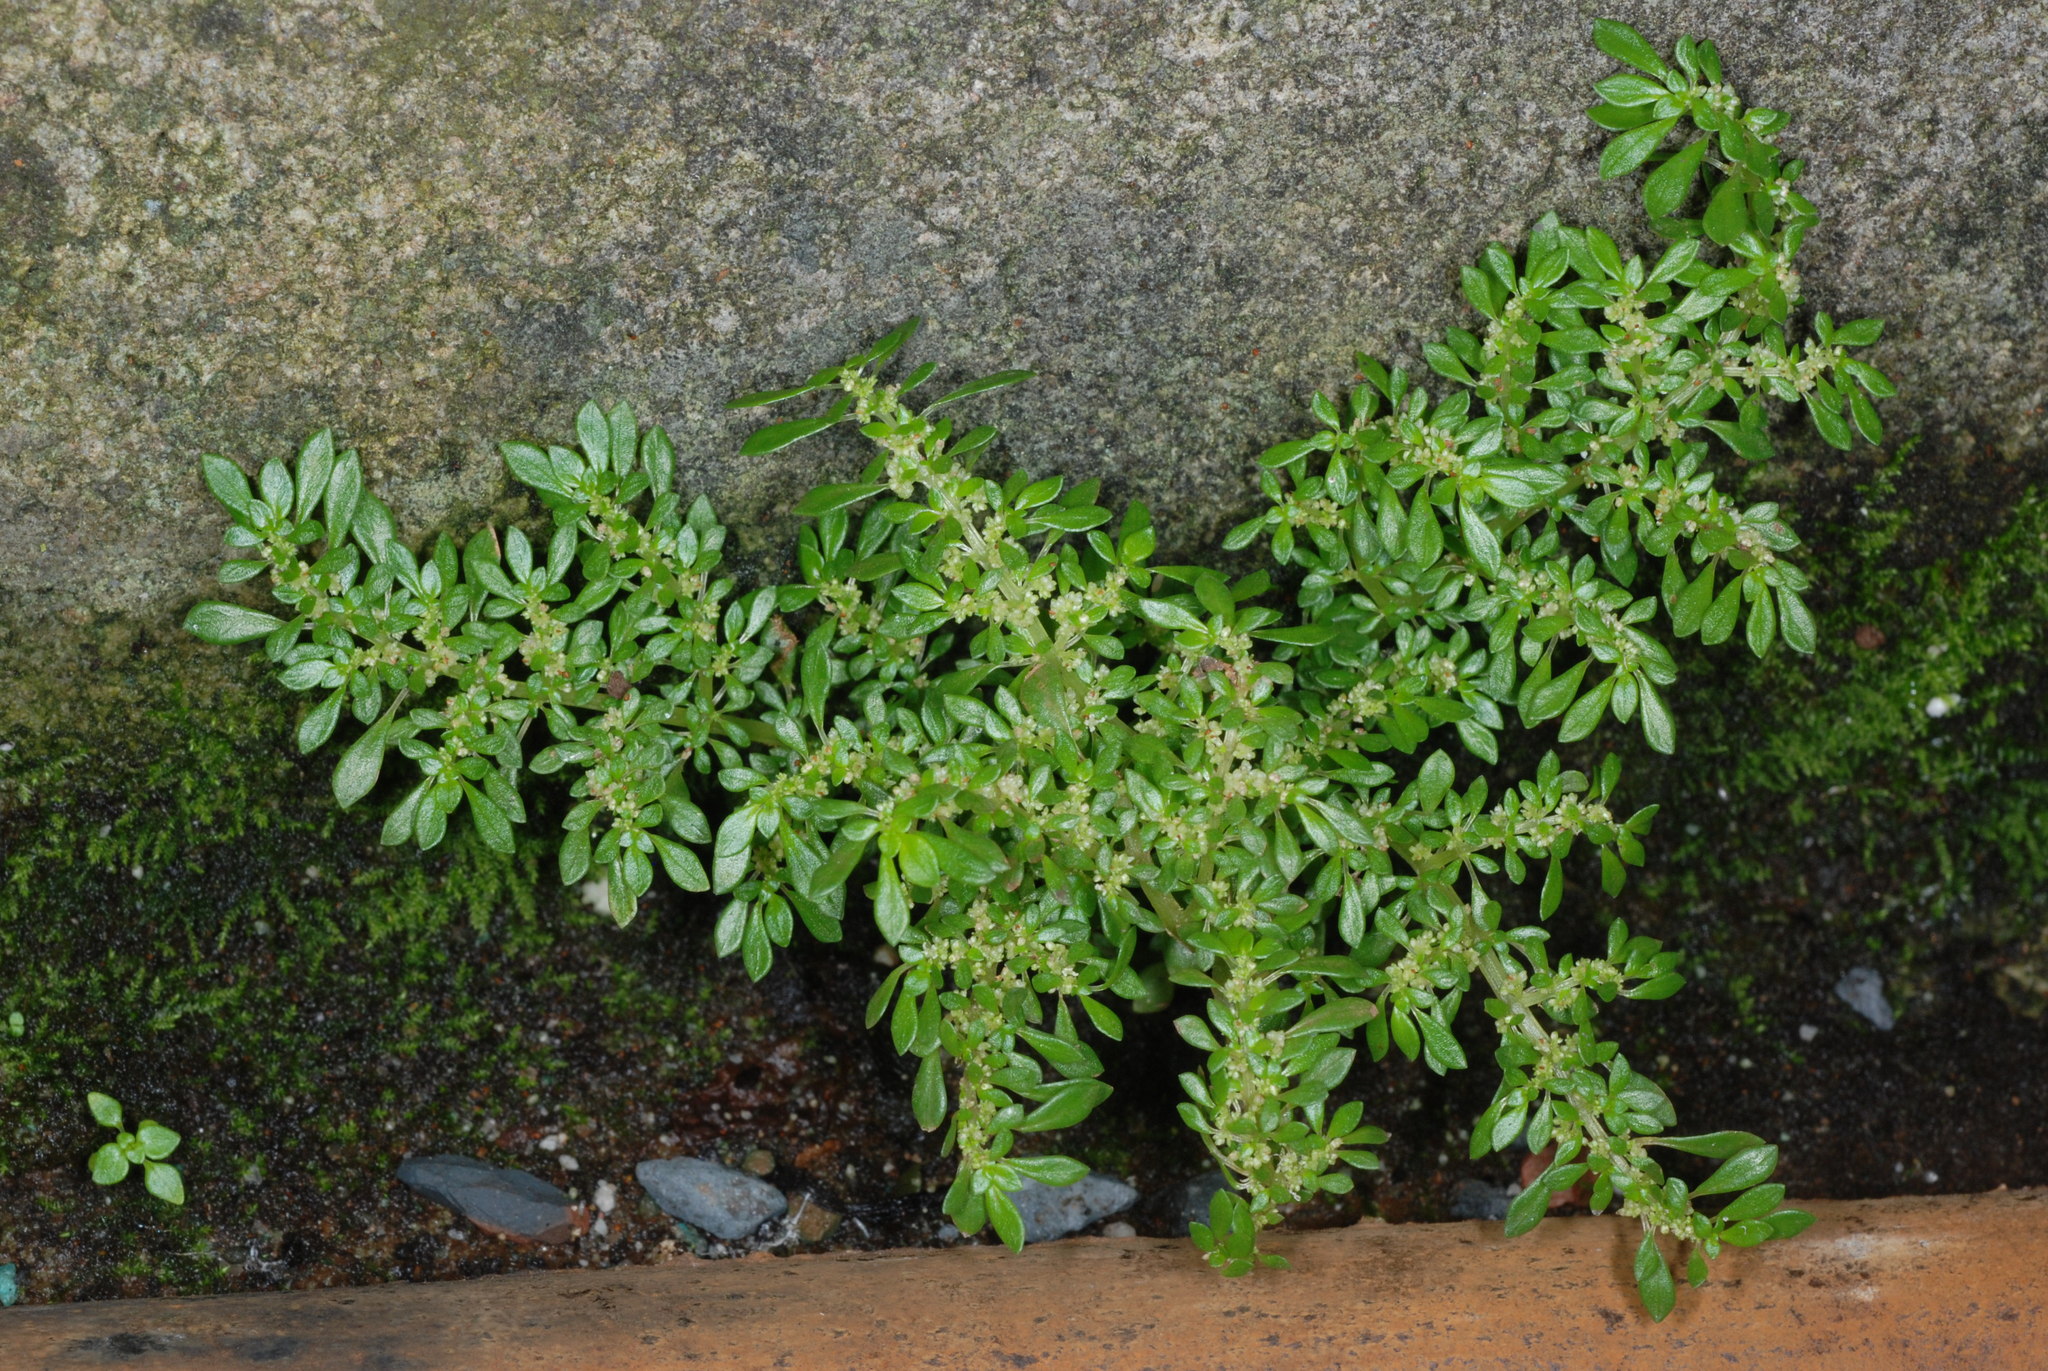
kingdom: Plantae
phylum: Tracheophyta
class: Magnoliopsida
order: Rosales
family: Urticaceae
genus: Pilea
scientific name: Pilea microphylla
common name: Artillery-plant
